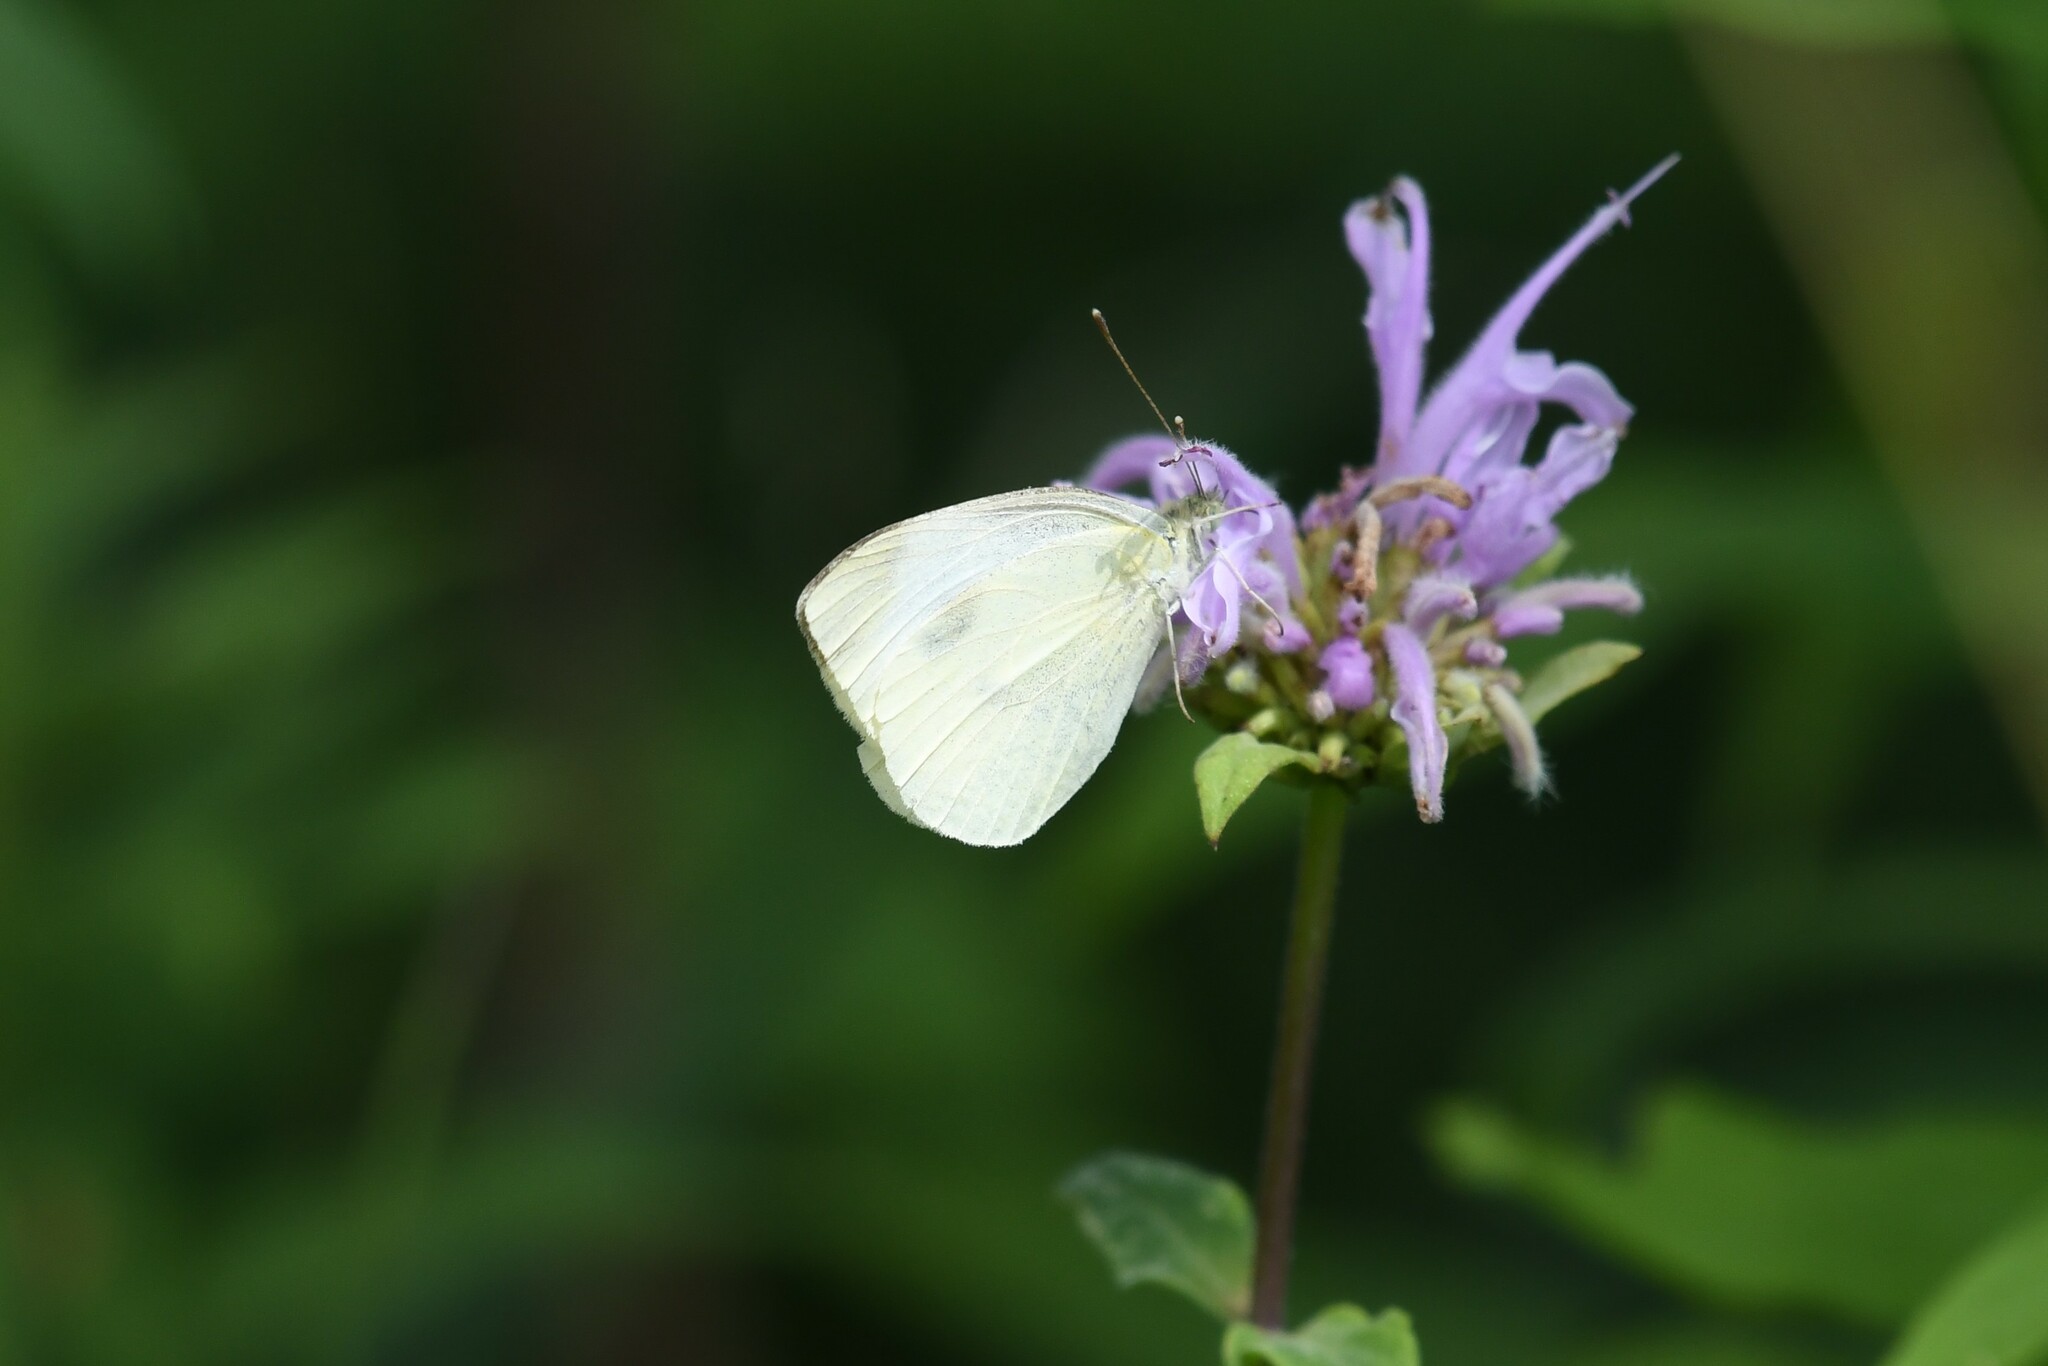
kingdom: Animalia
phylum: Arthropoda
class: Insecta
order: Lepidoptera
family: Pieridae
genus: Pieris
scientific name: Pieris rapae
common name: Small white
